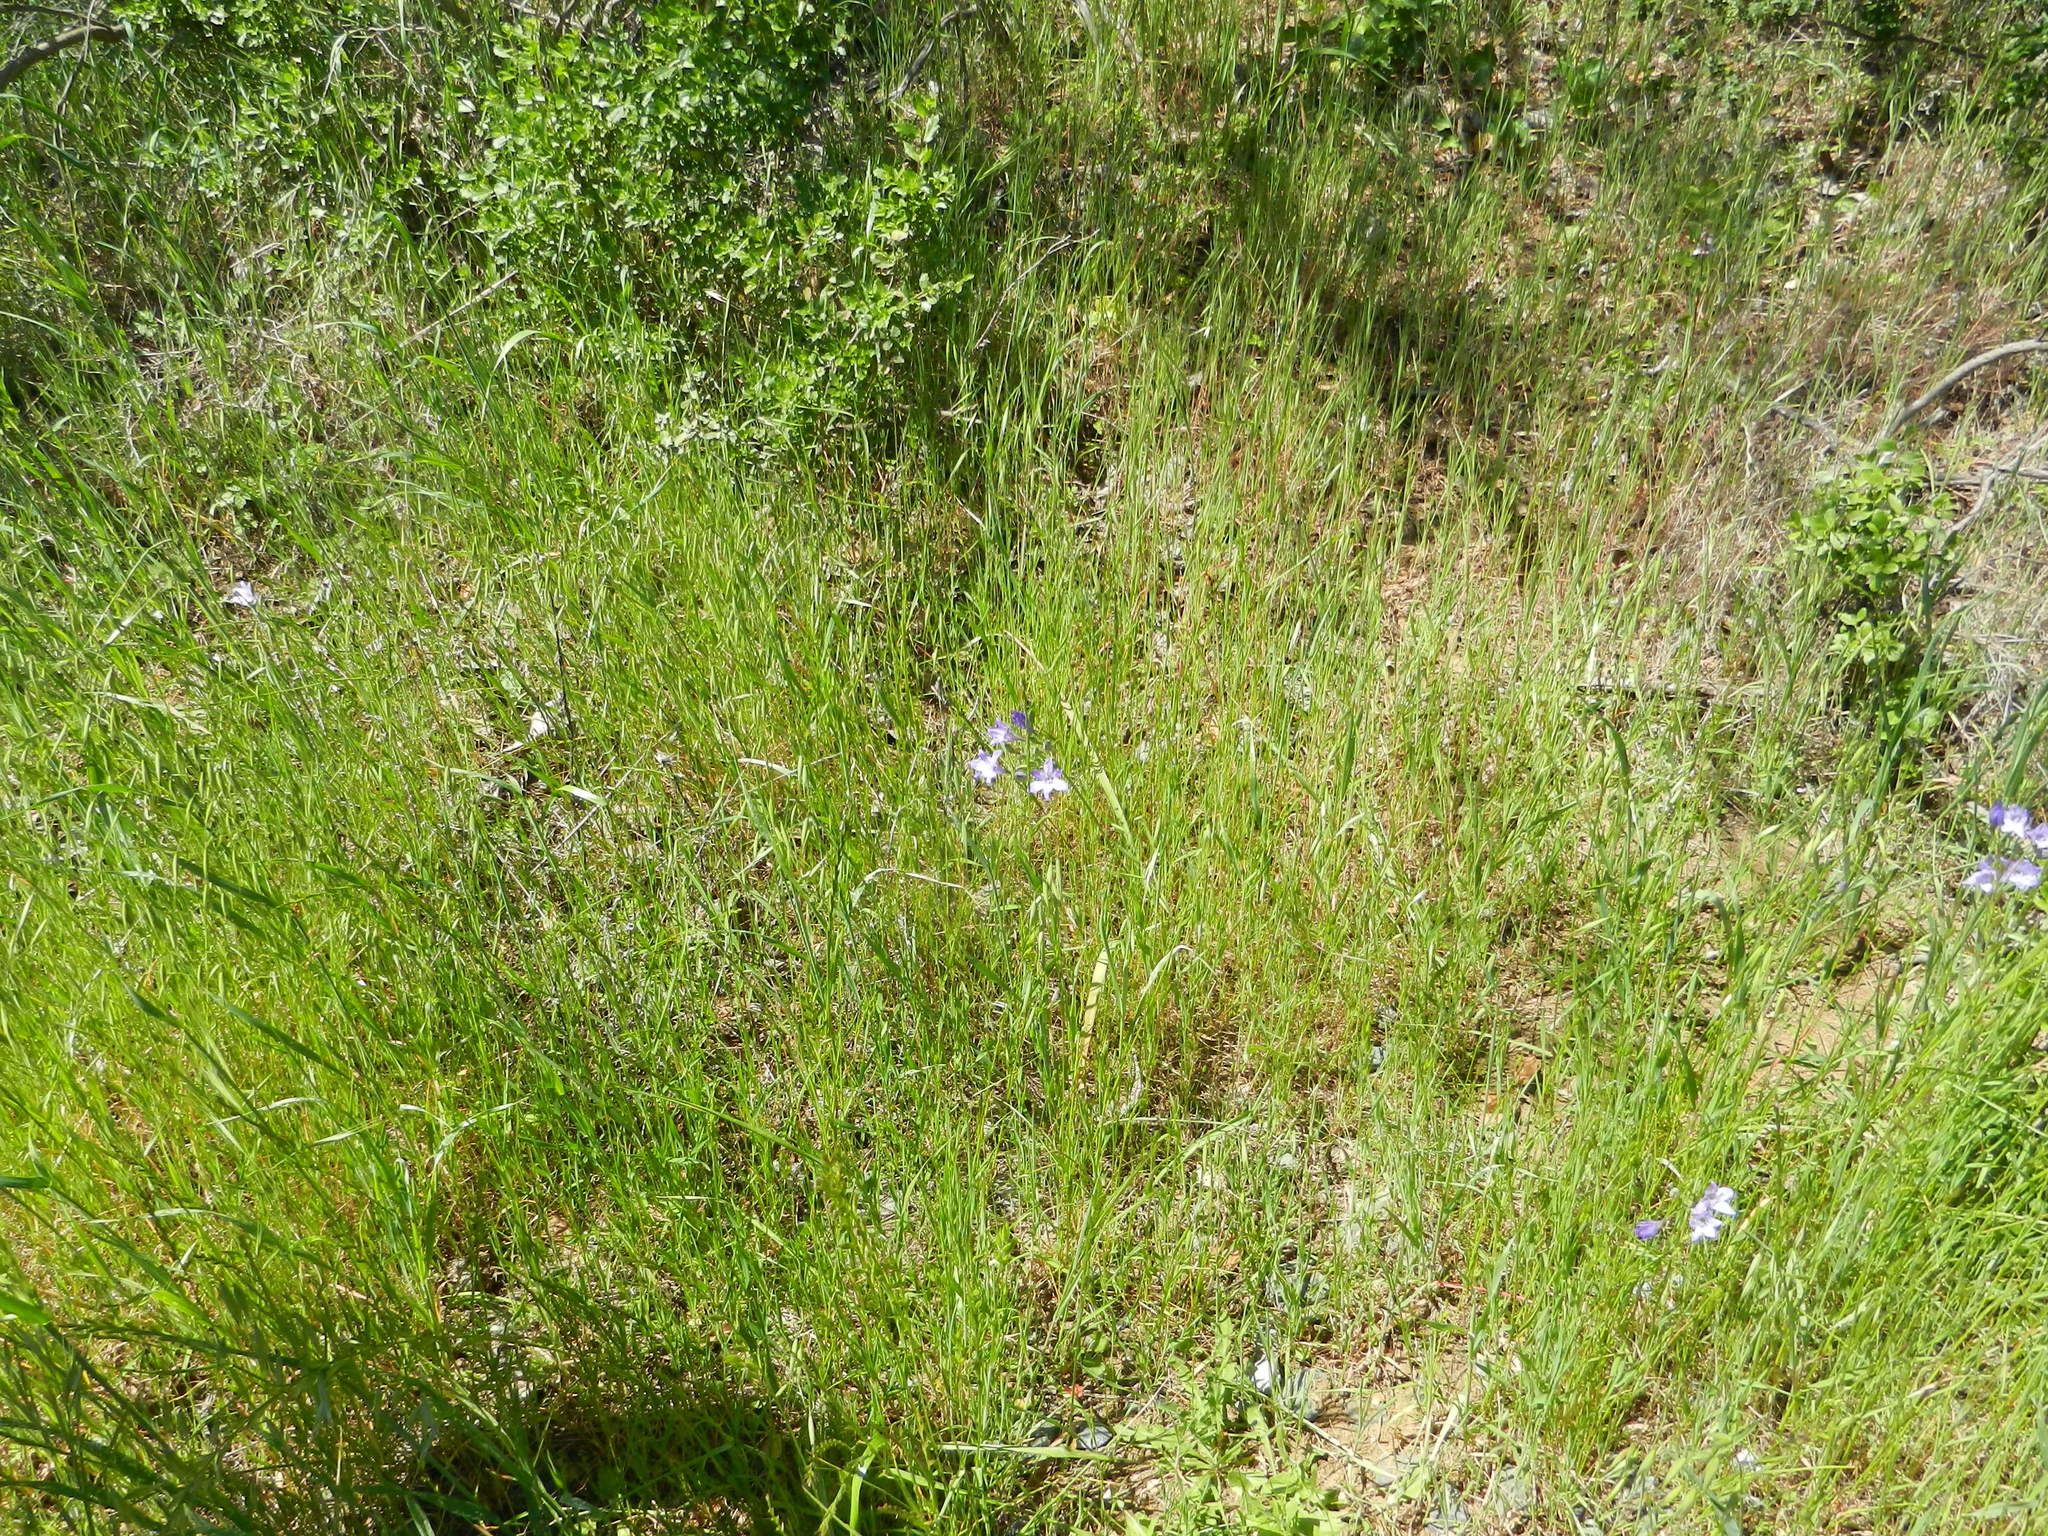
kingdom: Plantae
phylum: Tracheophyta
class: Liliopsida
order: Asparagales
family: Asparagaceae
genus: Triteleia
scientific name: Triteleia laxa
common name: Triplet-lily
